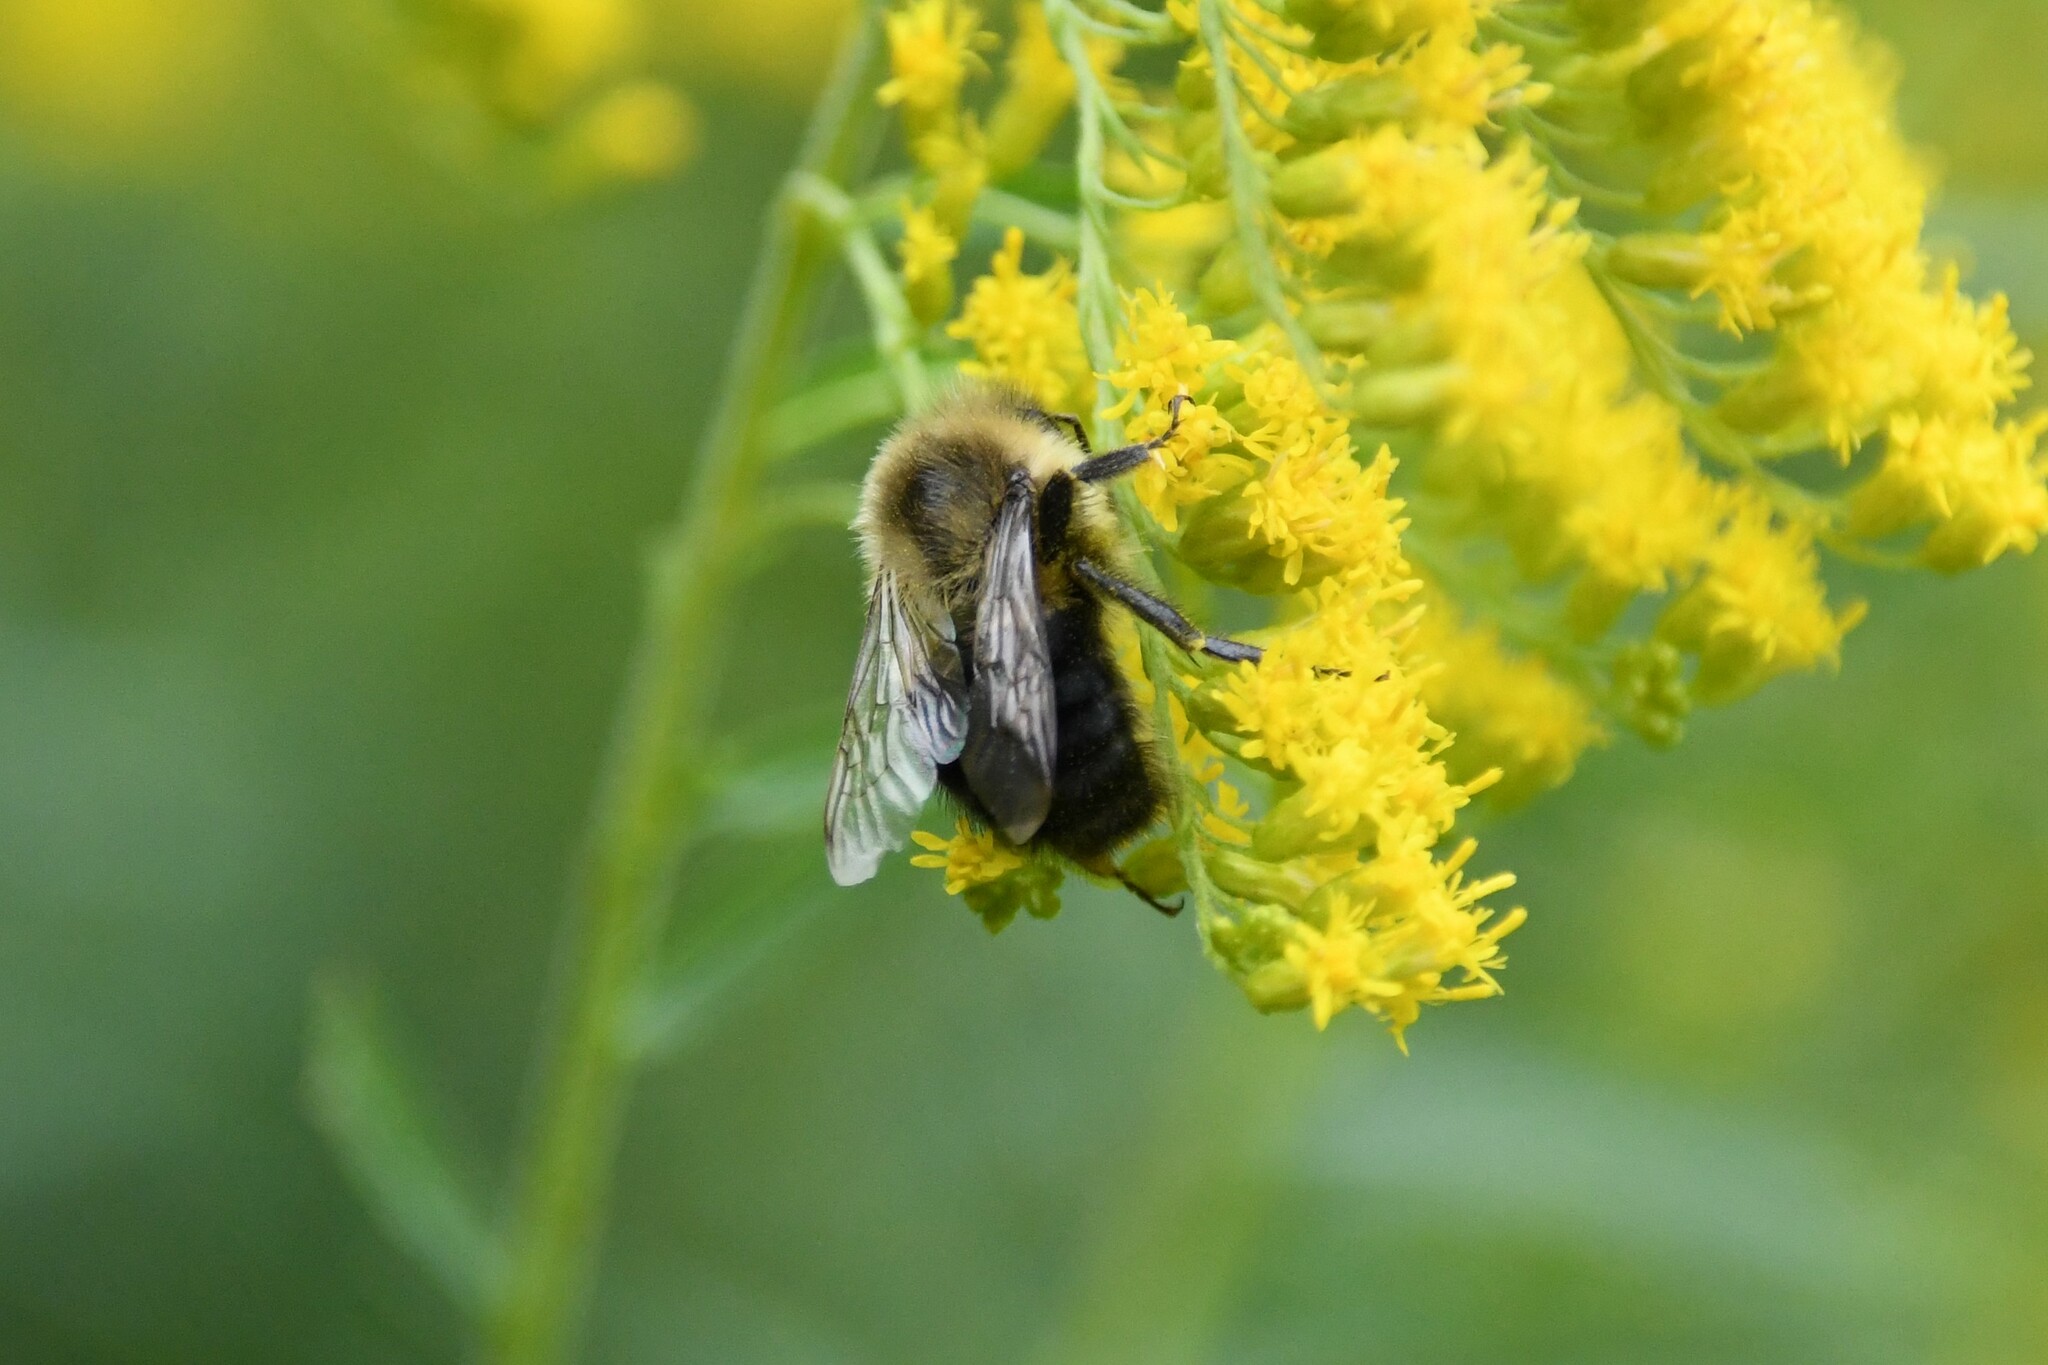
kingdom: Animalia
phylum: Arthropoda
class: Insecta
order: Hymenoptera
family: Apidae
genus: Bombus
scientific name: Bombus impatiens
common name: Common eastern bumble bee
